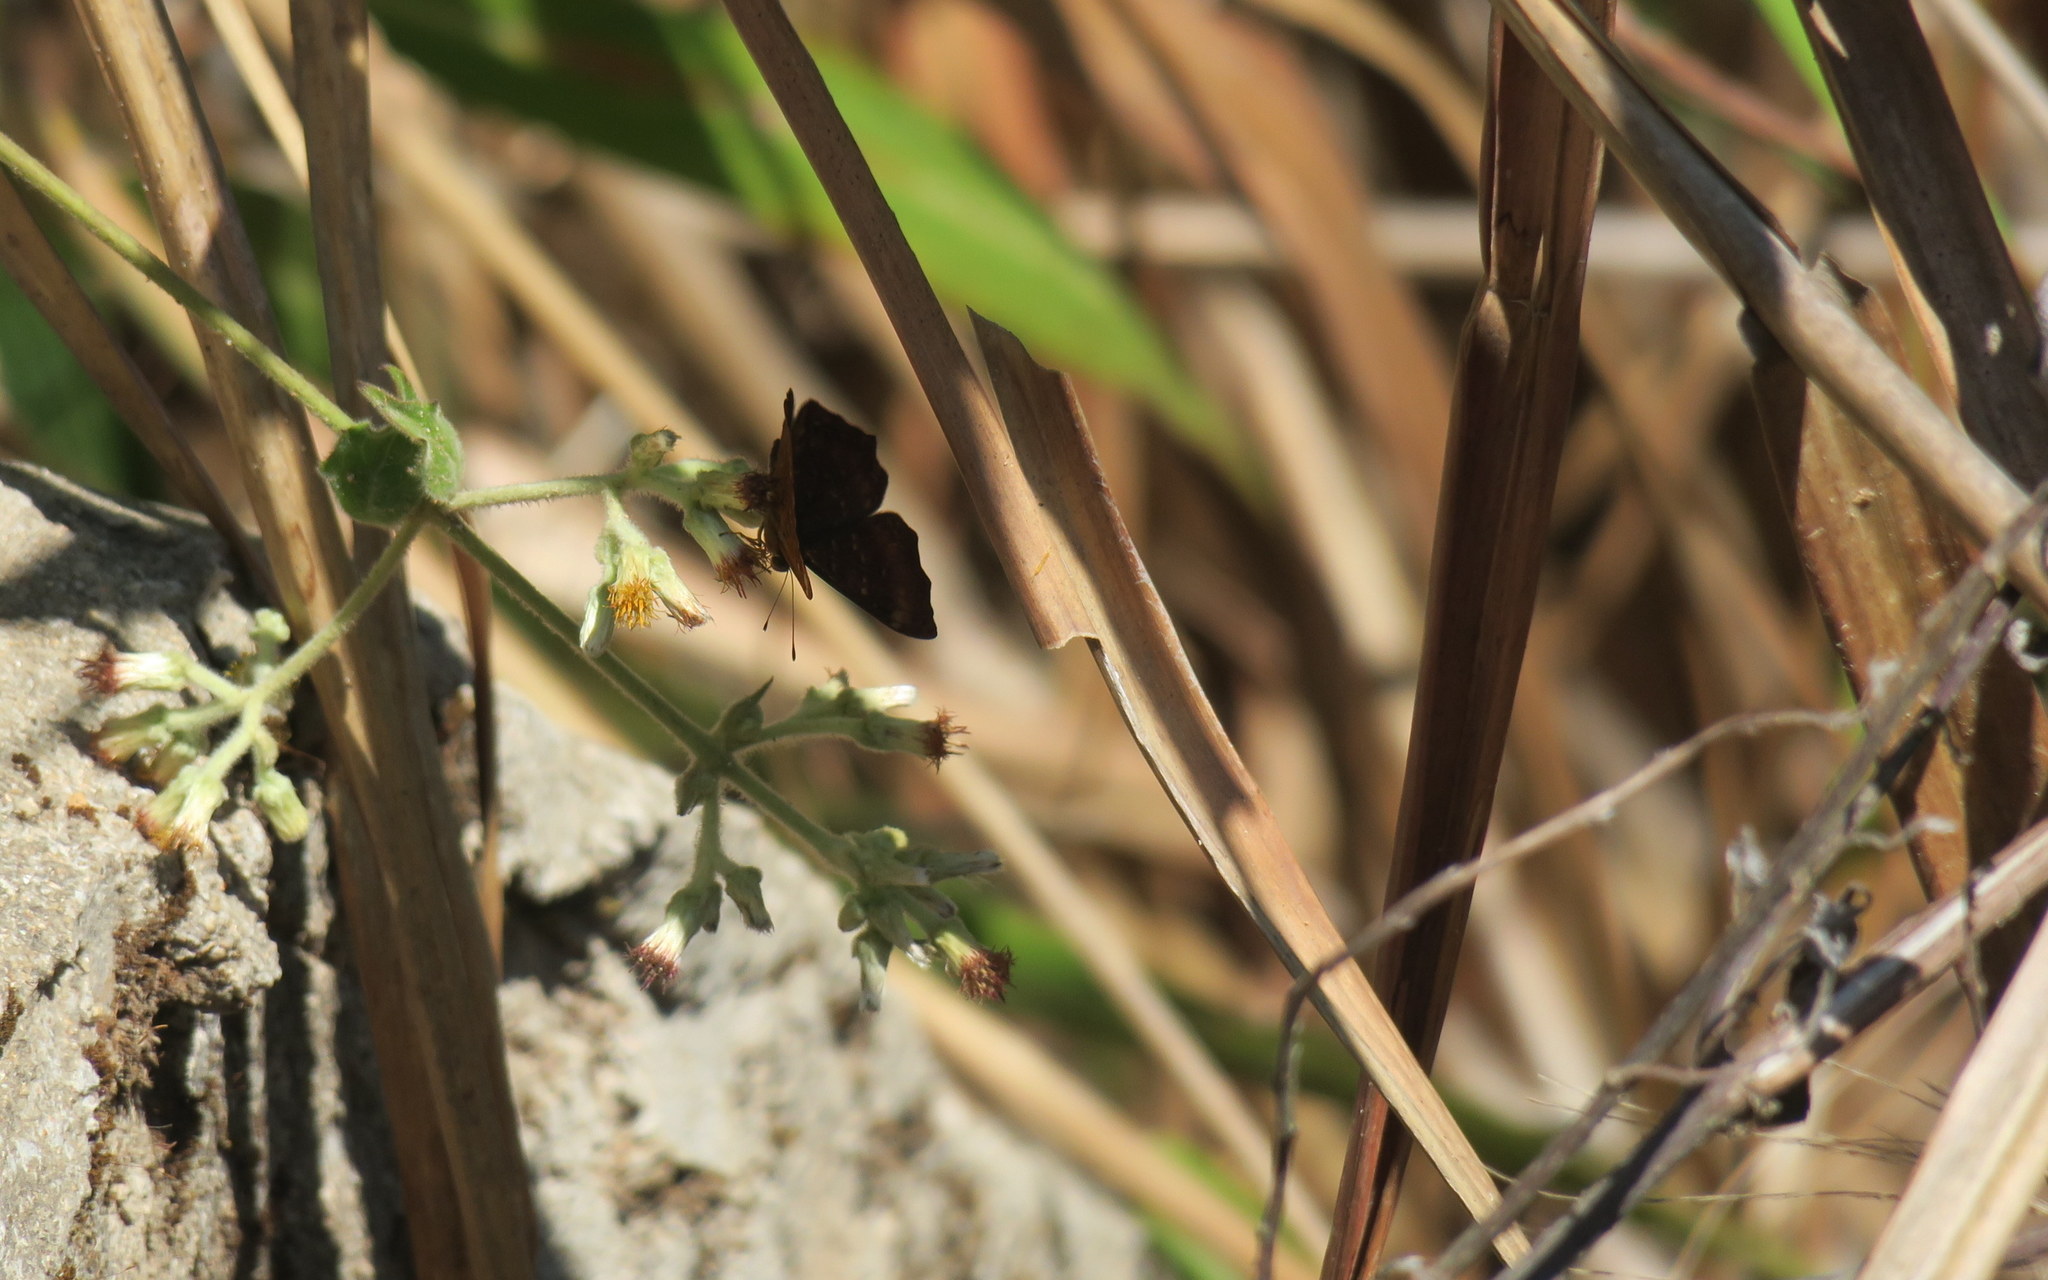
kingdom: Animalia
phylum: Arthropoda
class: Insecta
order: Lepidoptera
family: Riodinidae
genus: Zemeros
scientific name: Zemeros flegyas
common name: Punchinello
